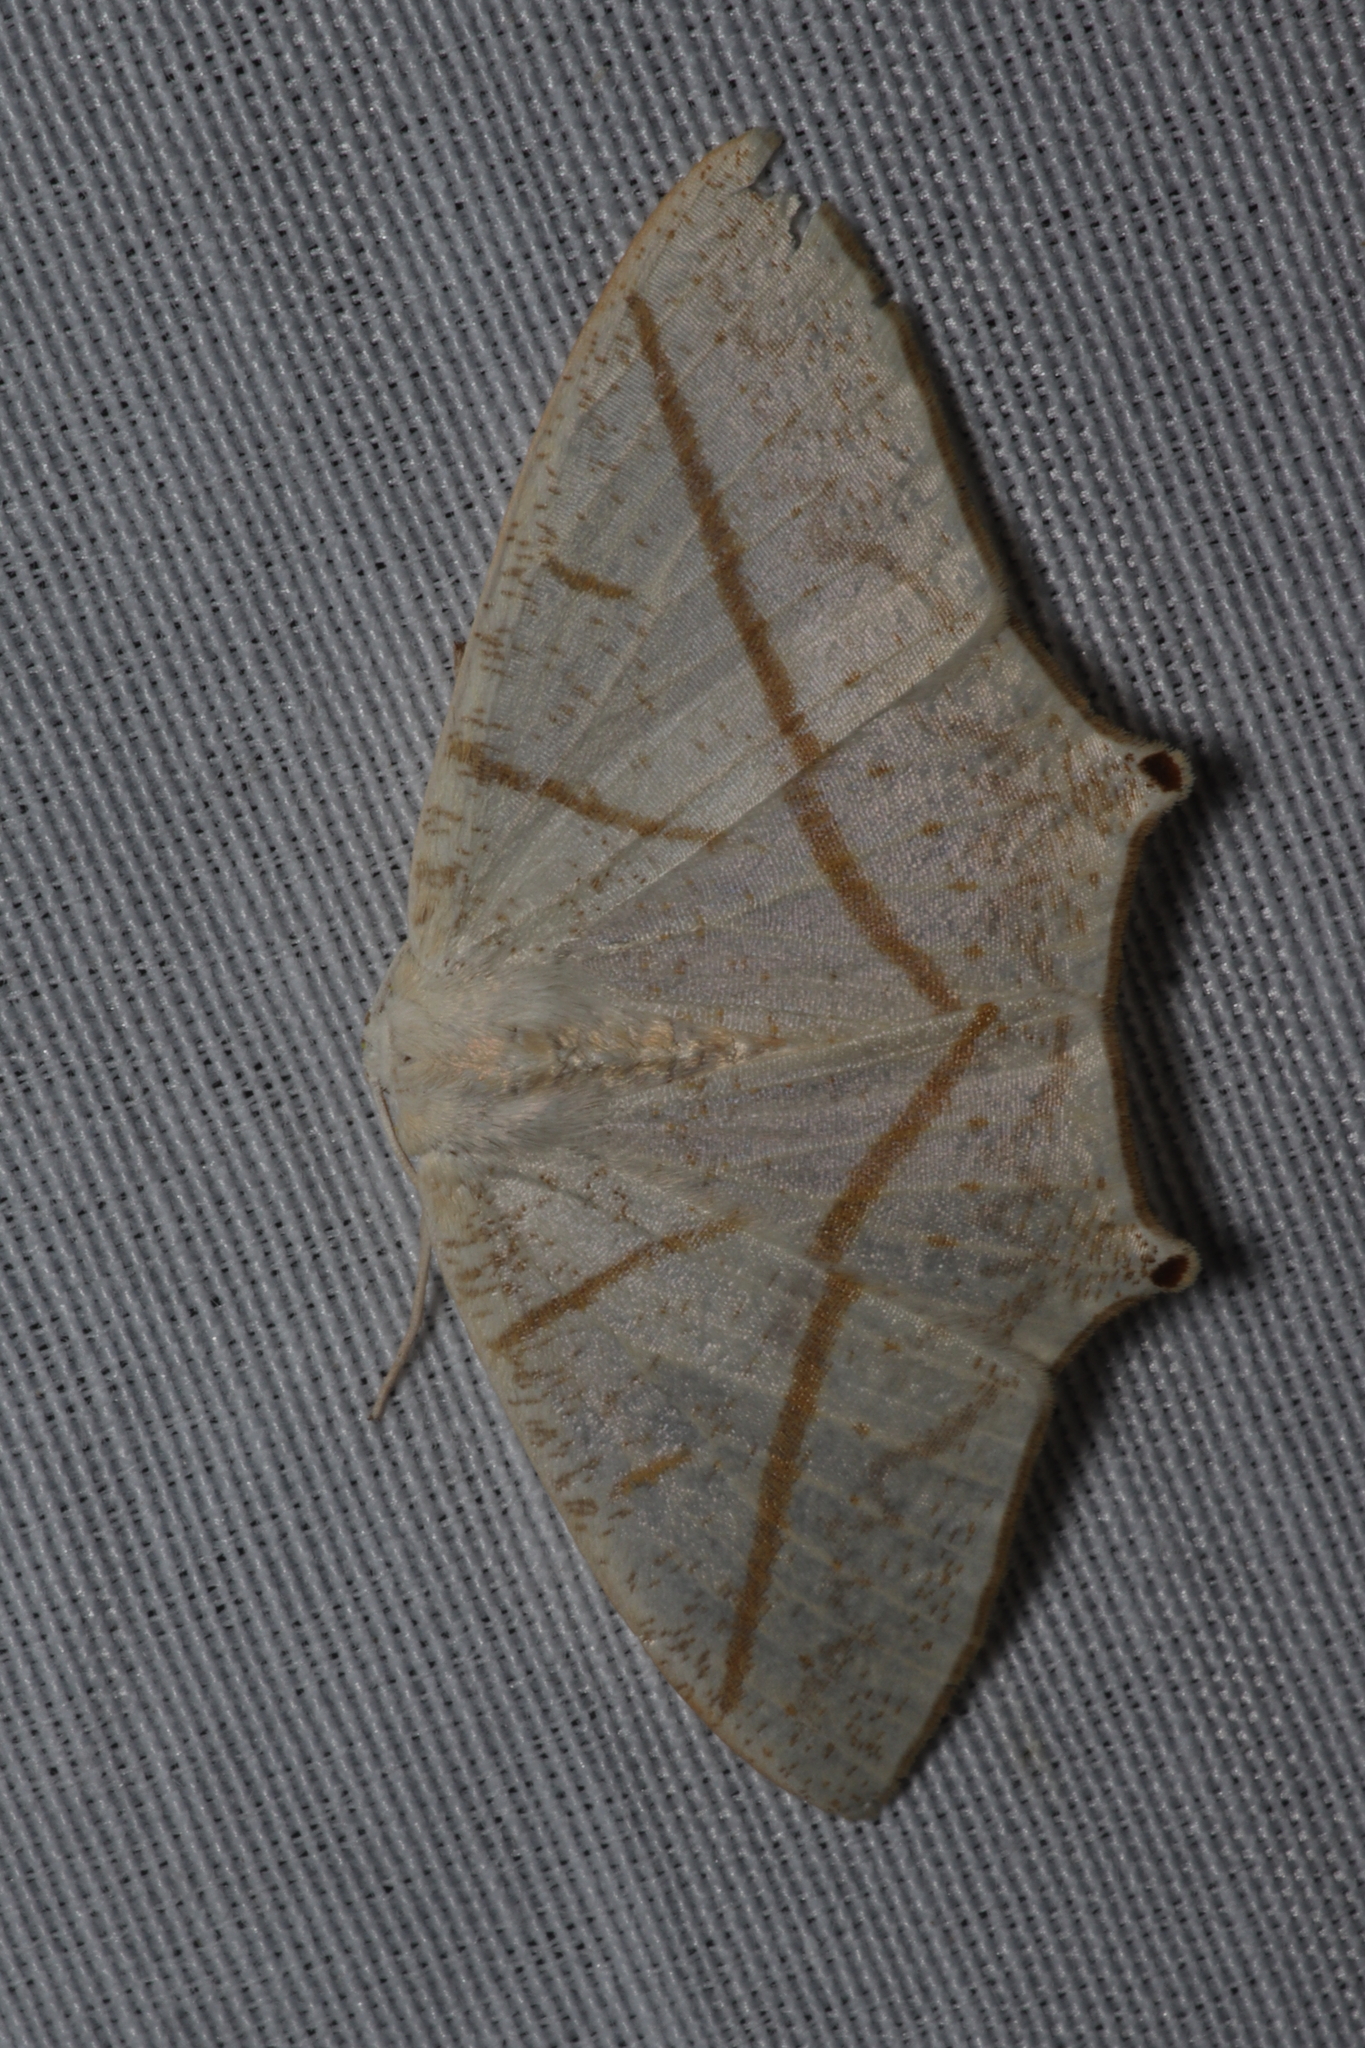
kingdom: Animalia
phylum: Arthropoda
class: Insecta
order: Lepidoptera
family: Geometridae
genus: Brachurapteryx
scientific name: Brachurapteryx tesserata
